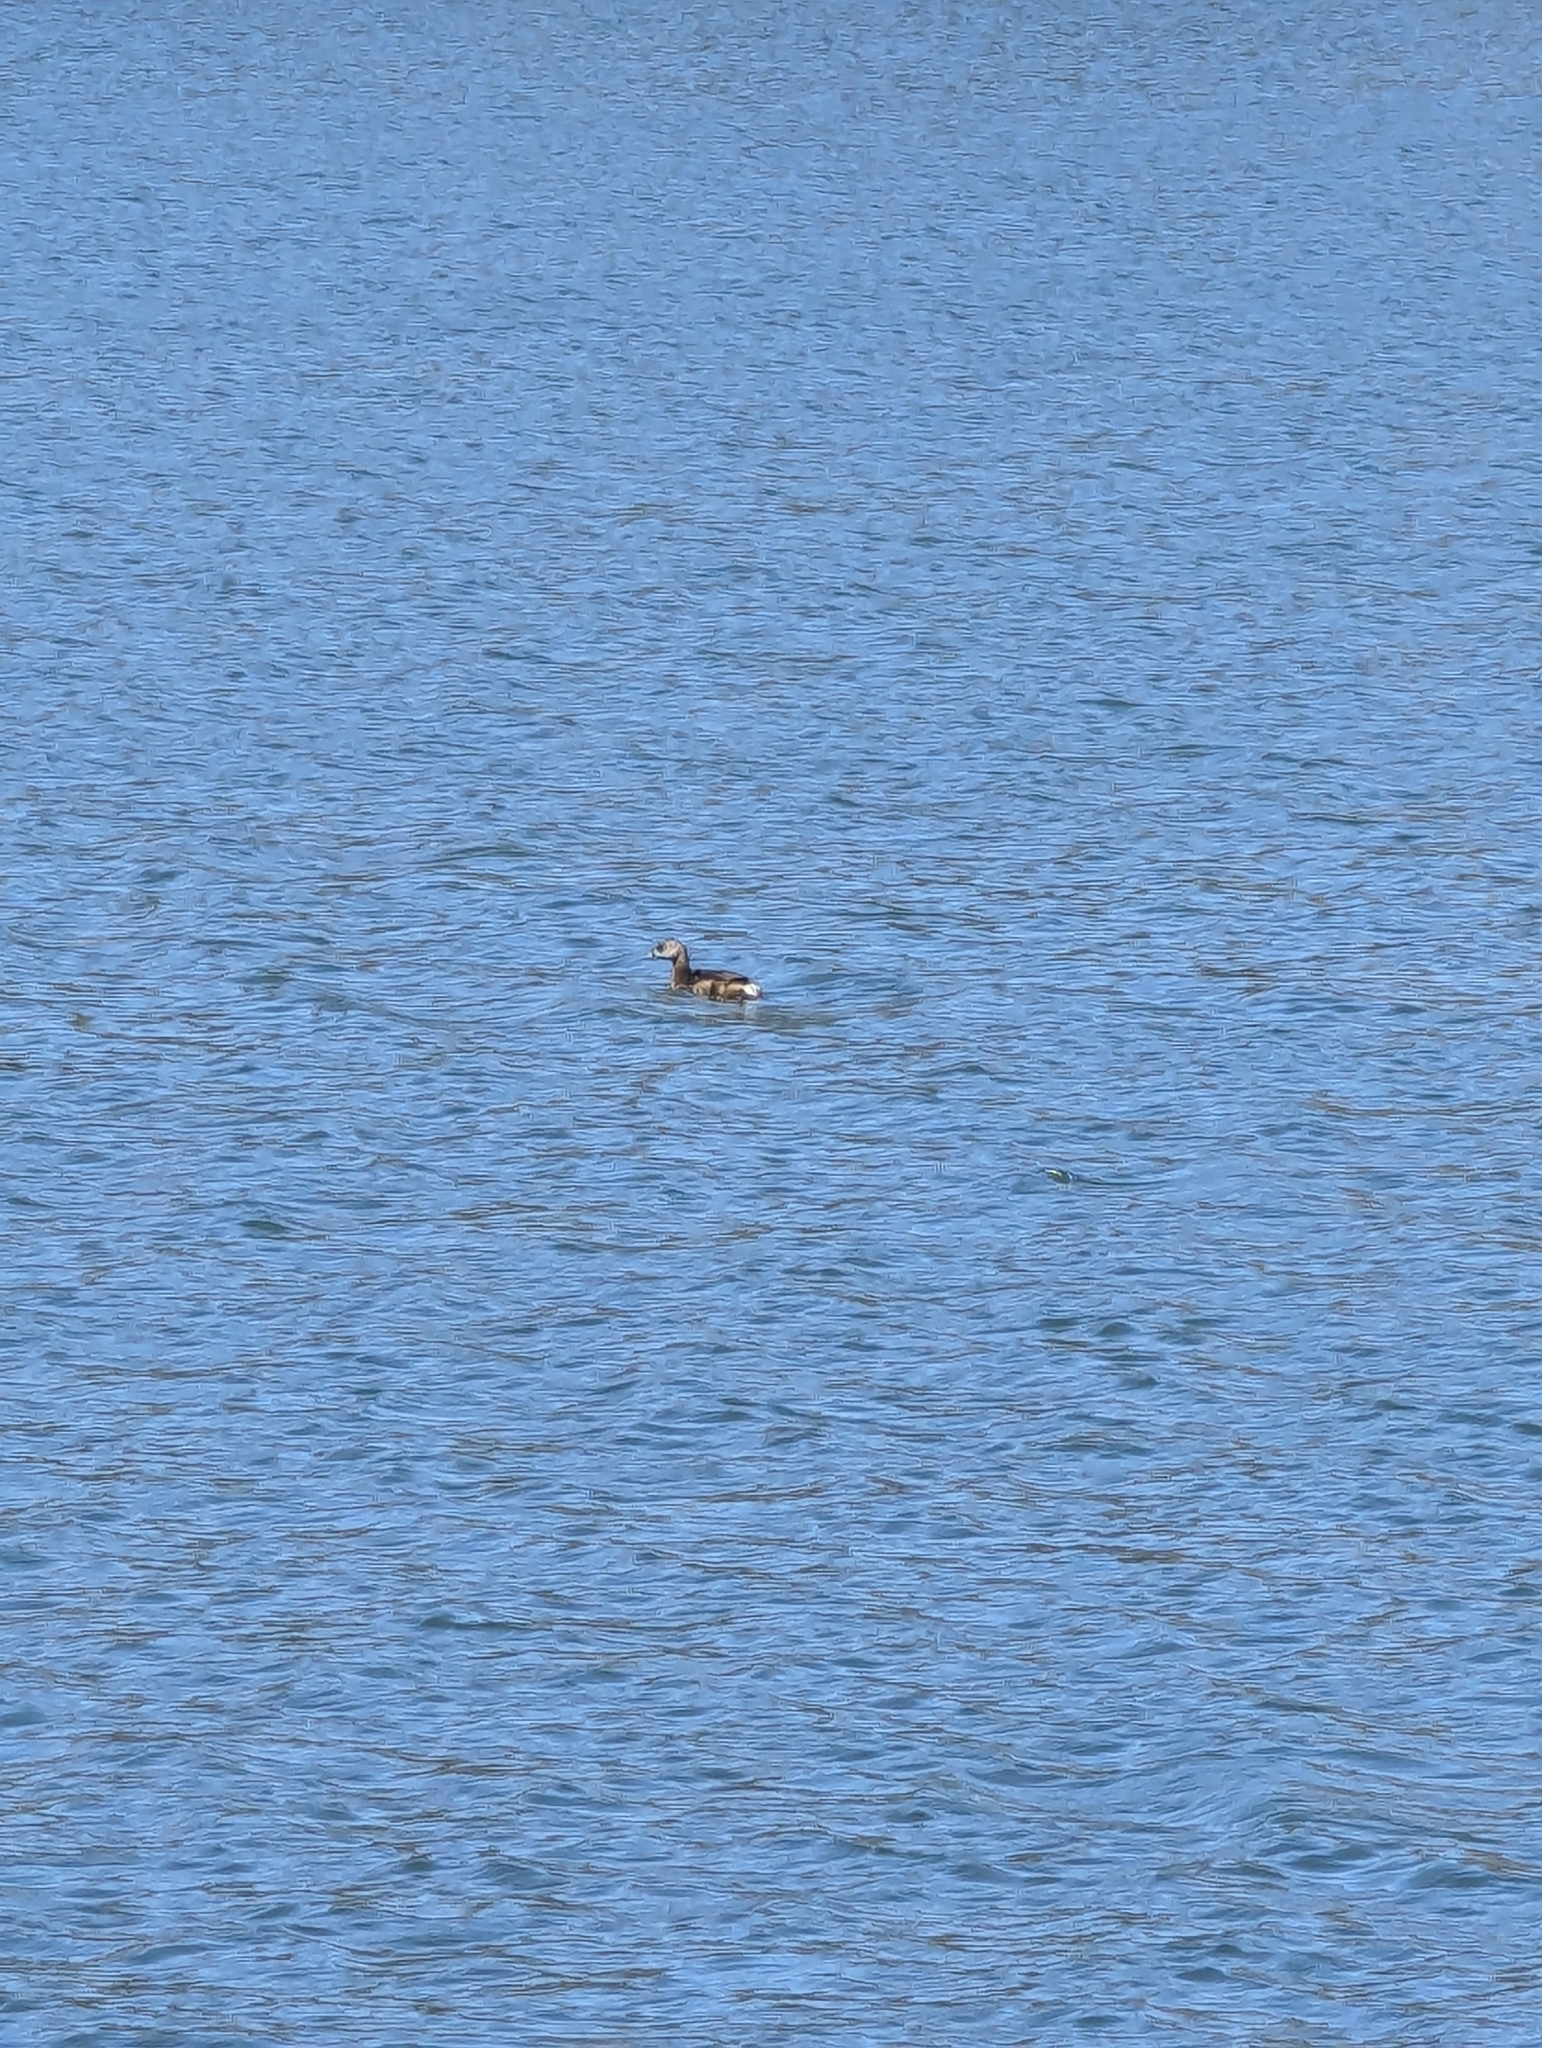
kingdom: Animalia
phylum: Chordata
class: Aves
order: Podicipediformes
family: Podicipedidae
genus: Podilymbus
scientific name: Podilymbus podiceps
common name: Pied-billed grebe
